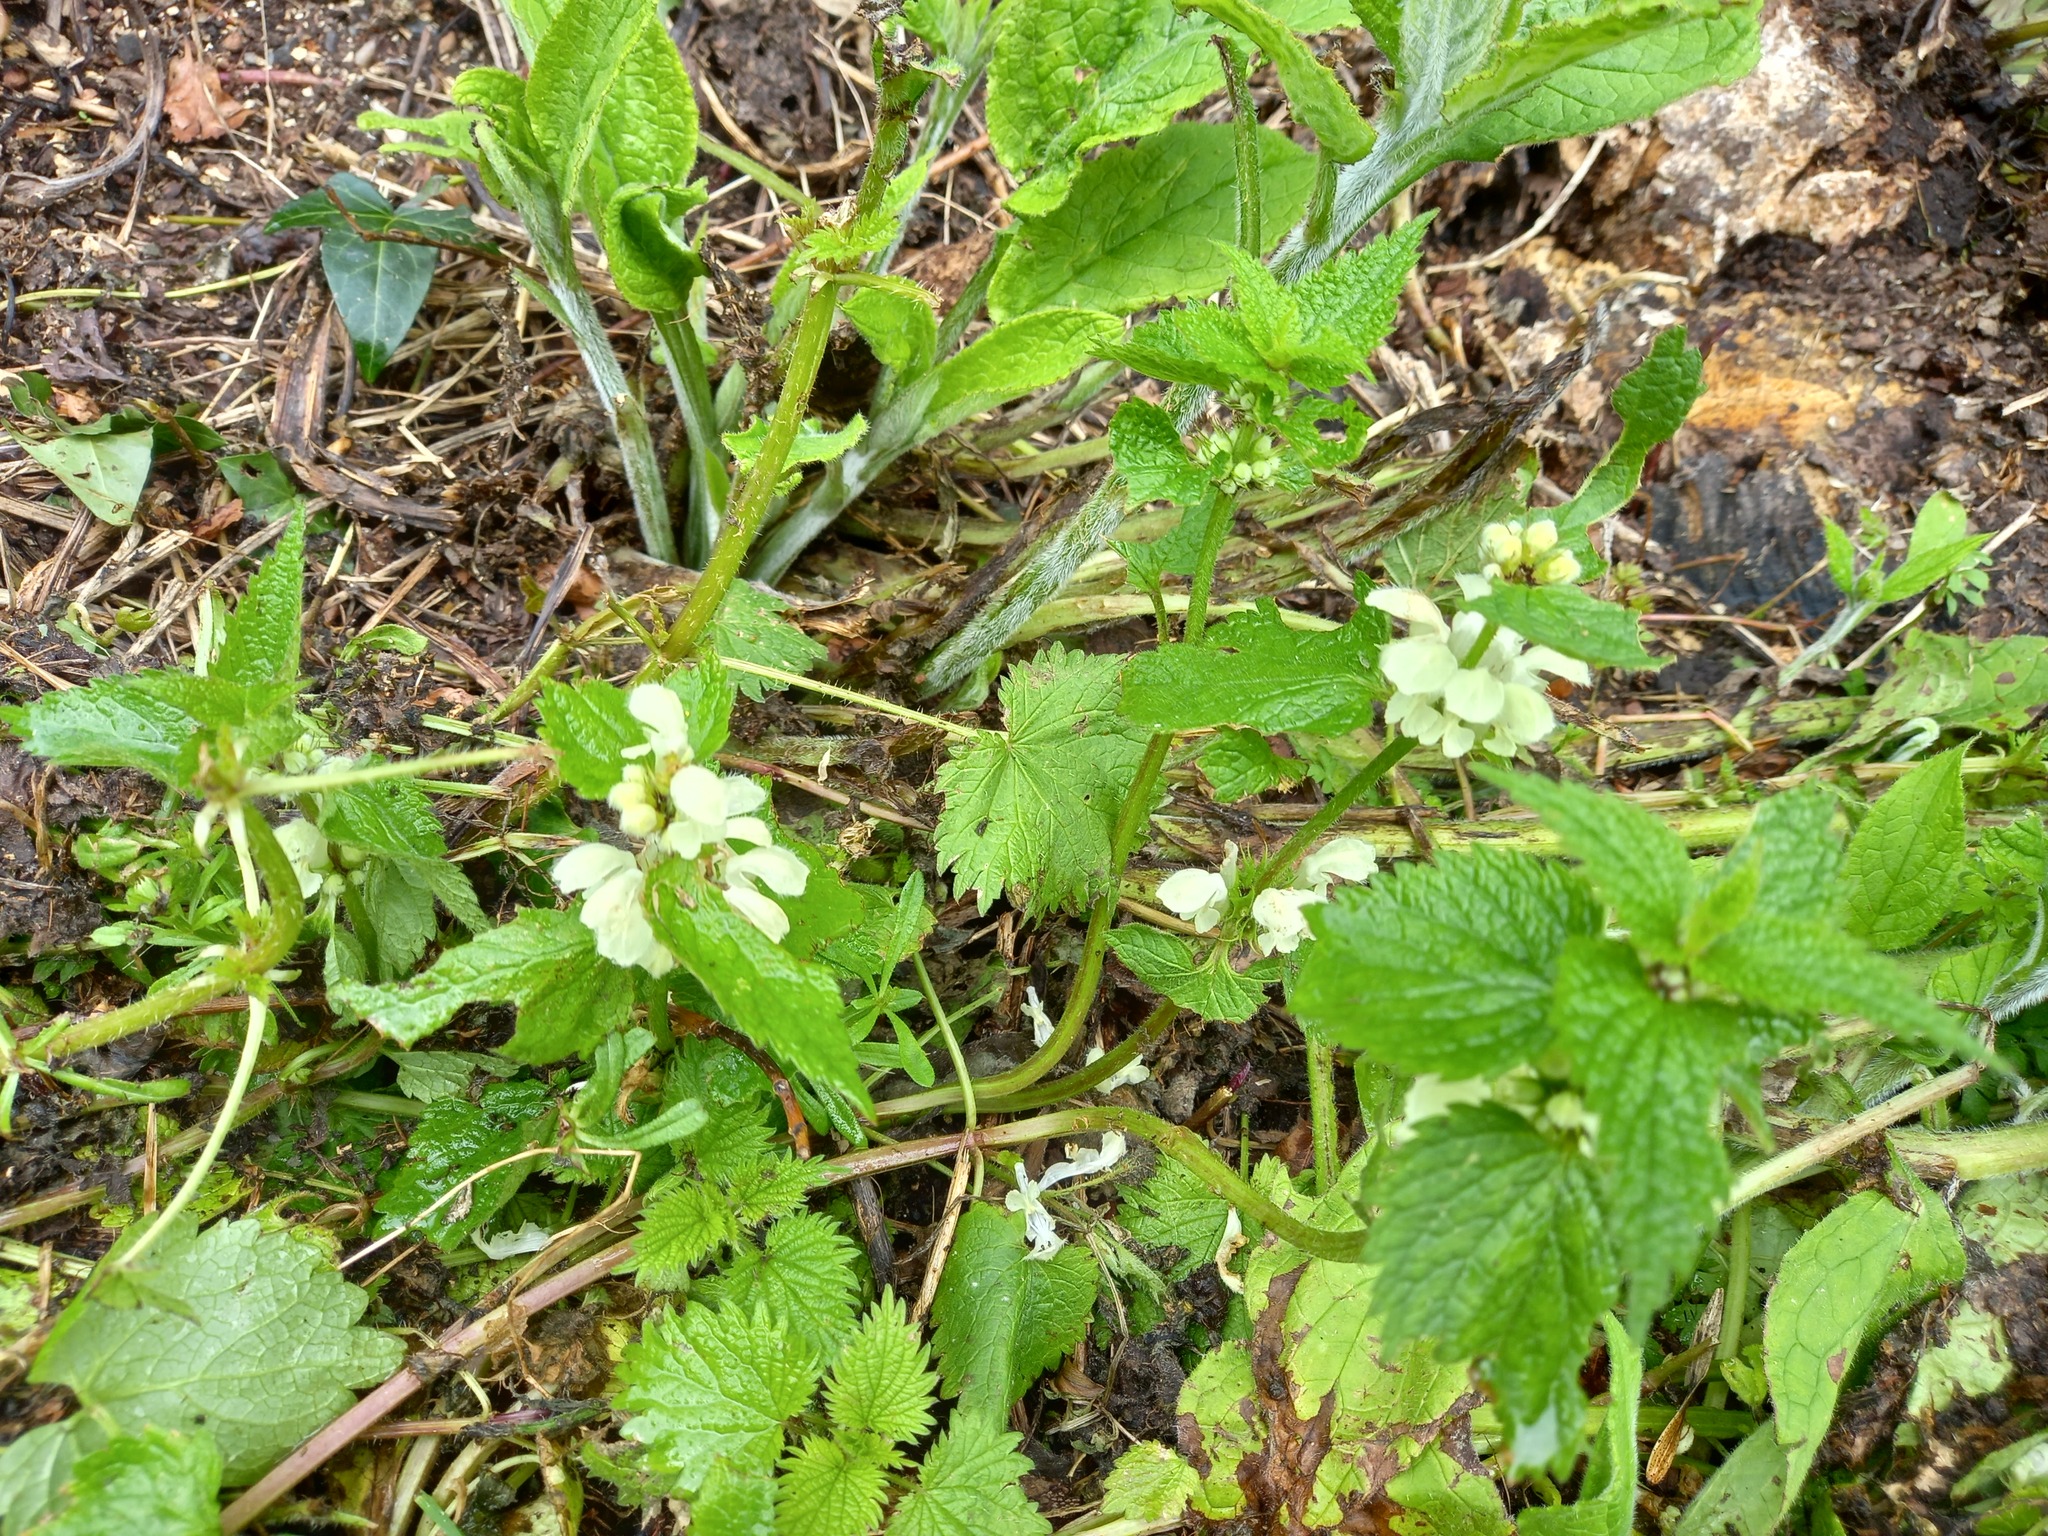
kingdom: Plantae
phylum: Tracheophyta
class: Magnoliopsida
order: Lamiales
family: Lamiaceae
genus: Lamium
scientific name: Lamium album
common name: White dead-nettle
